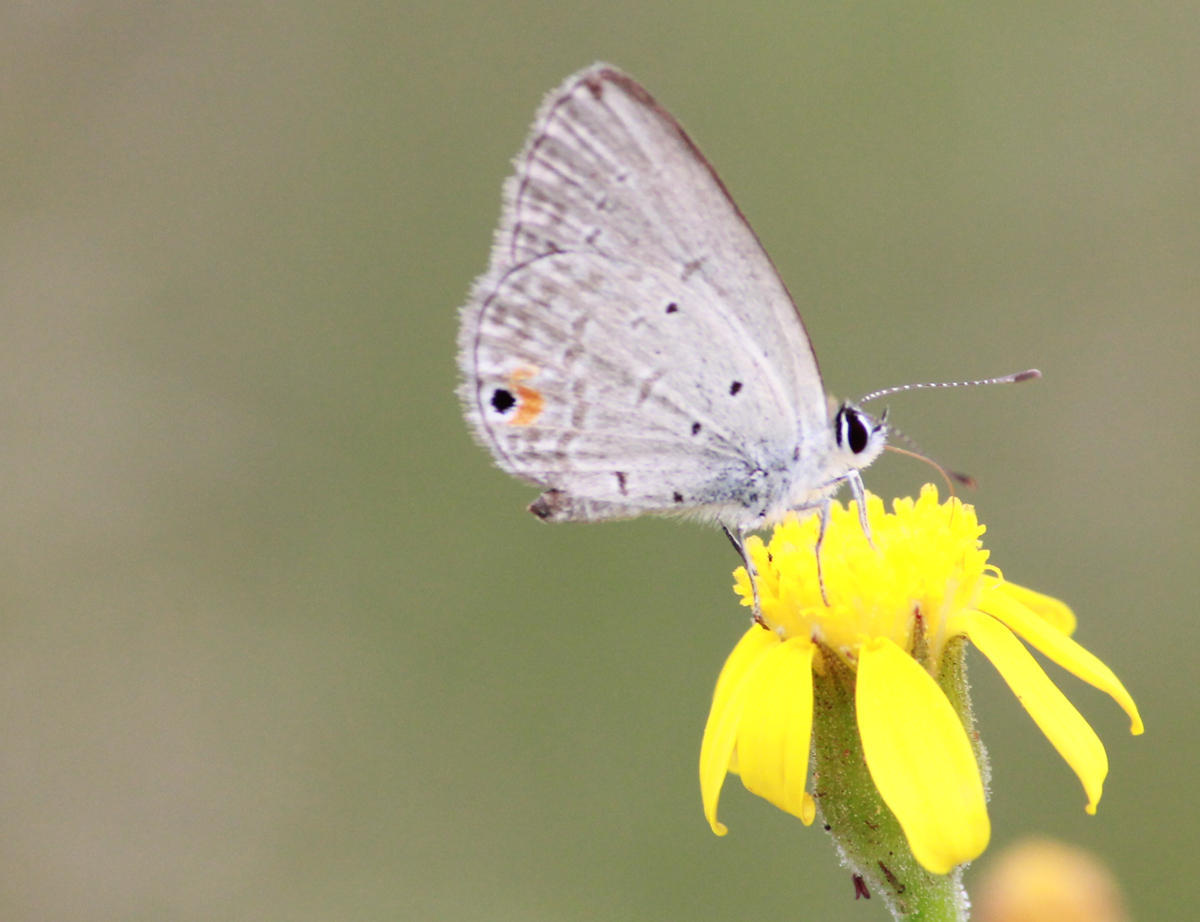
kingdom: Animalia
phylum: Arthropoda
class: Insecta
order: Lepidoptera
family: Lycaenidae
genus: Eicochrysops
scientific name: Eicochrysops messapus
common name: Cupreous blue
